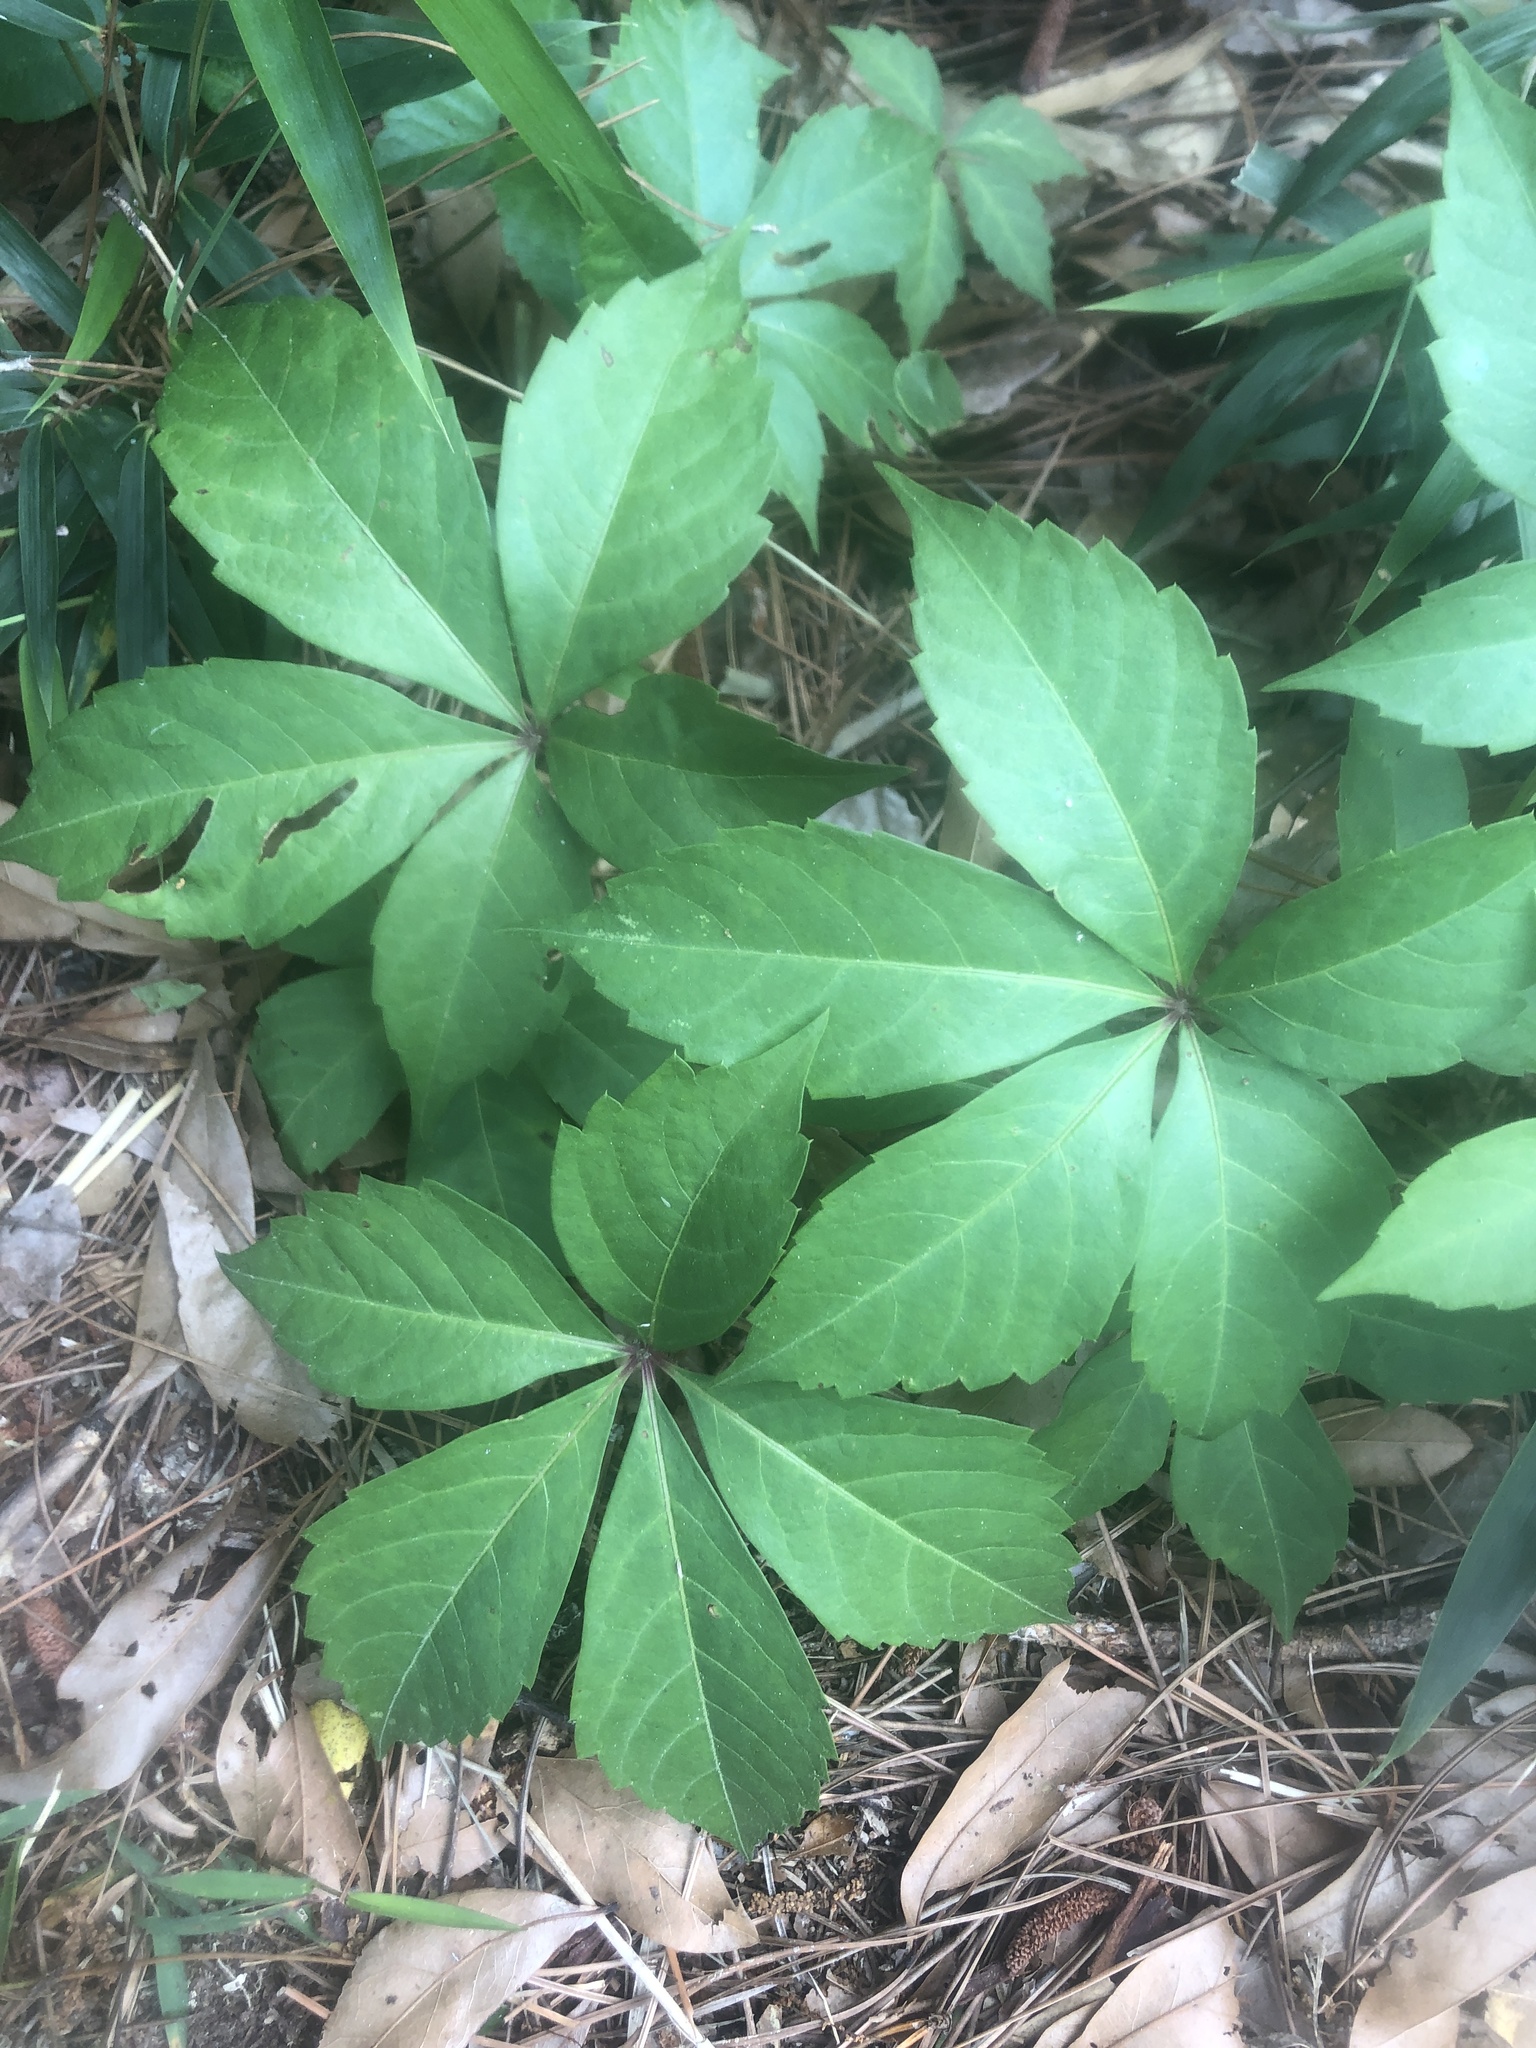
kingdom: Plantae
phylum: Tracheophyta
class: Magnoliopsida
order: Vitales
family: Vitaceae
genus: Parthenocissus
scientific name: Parthenocissus quinquefolia
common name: Virginia-creeper
